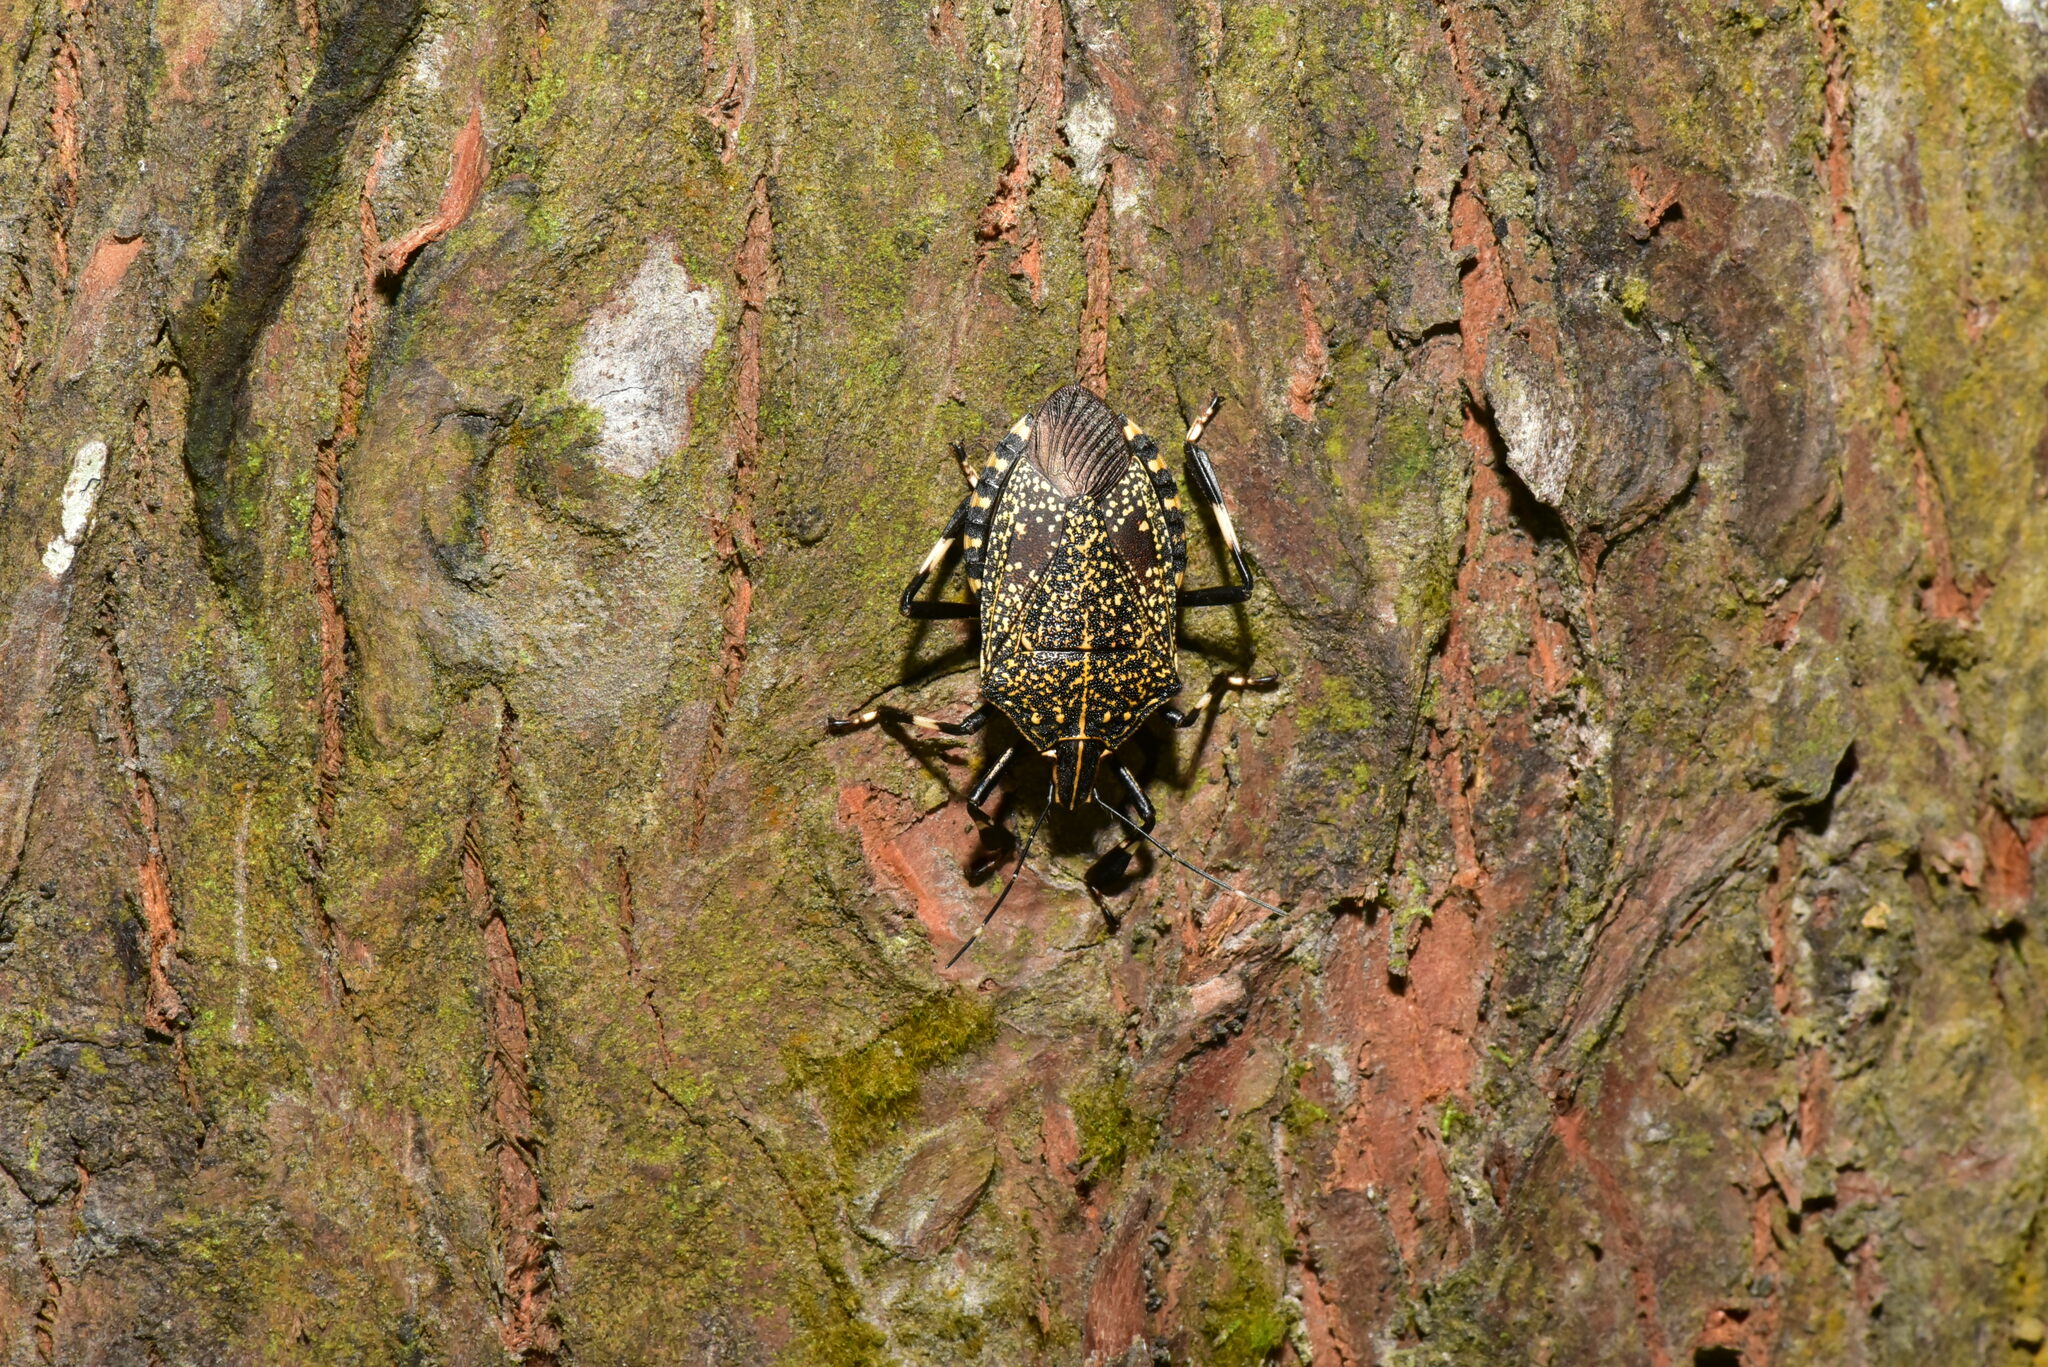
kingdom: Animalia
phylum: Arthropoda
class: Insecta
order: Hemiptera
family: Pentatomidae
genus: Erthesina
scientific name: Erthesina fullo
